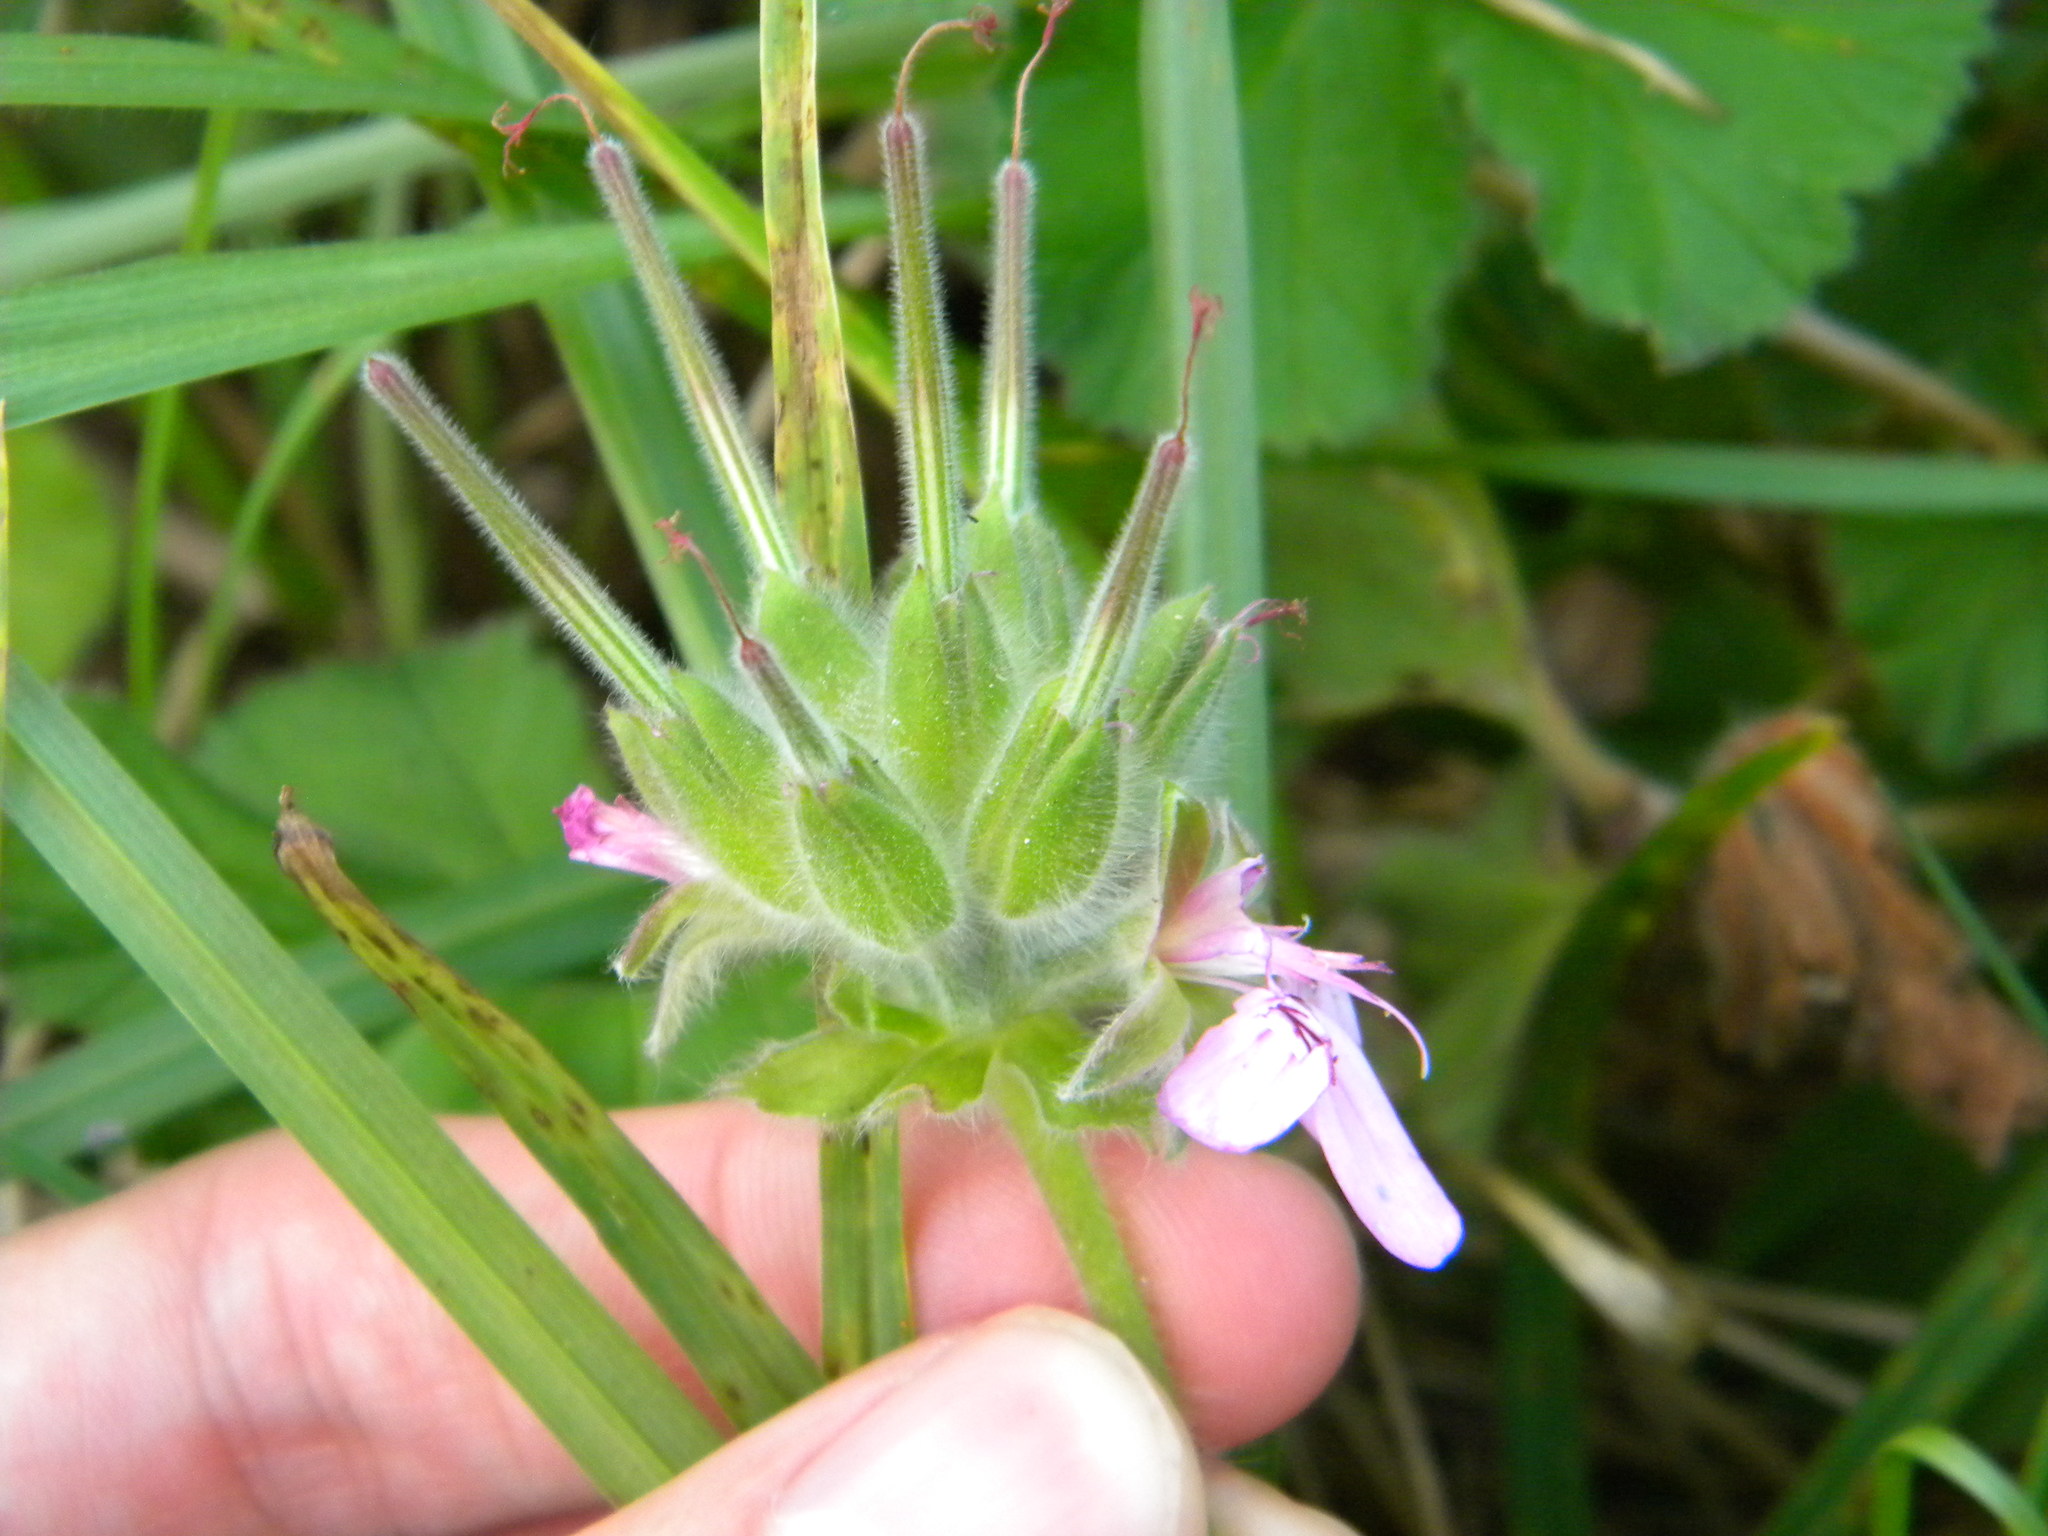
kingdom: Plantae
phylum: Tracheophyta
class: Magnoliopsida
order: Geraniales
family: Geraniaceae
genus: Pelargonium
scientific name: Pelargonium capitatum
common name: Rose scented geranium
